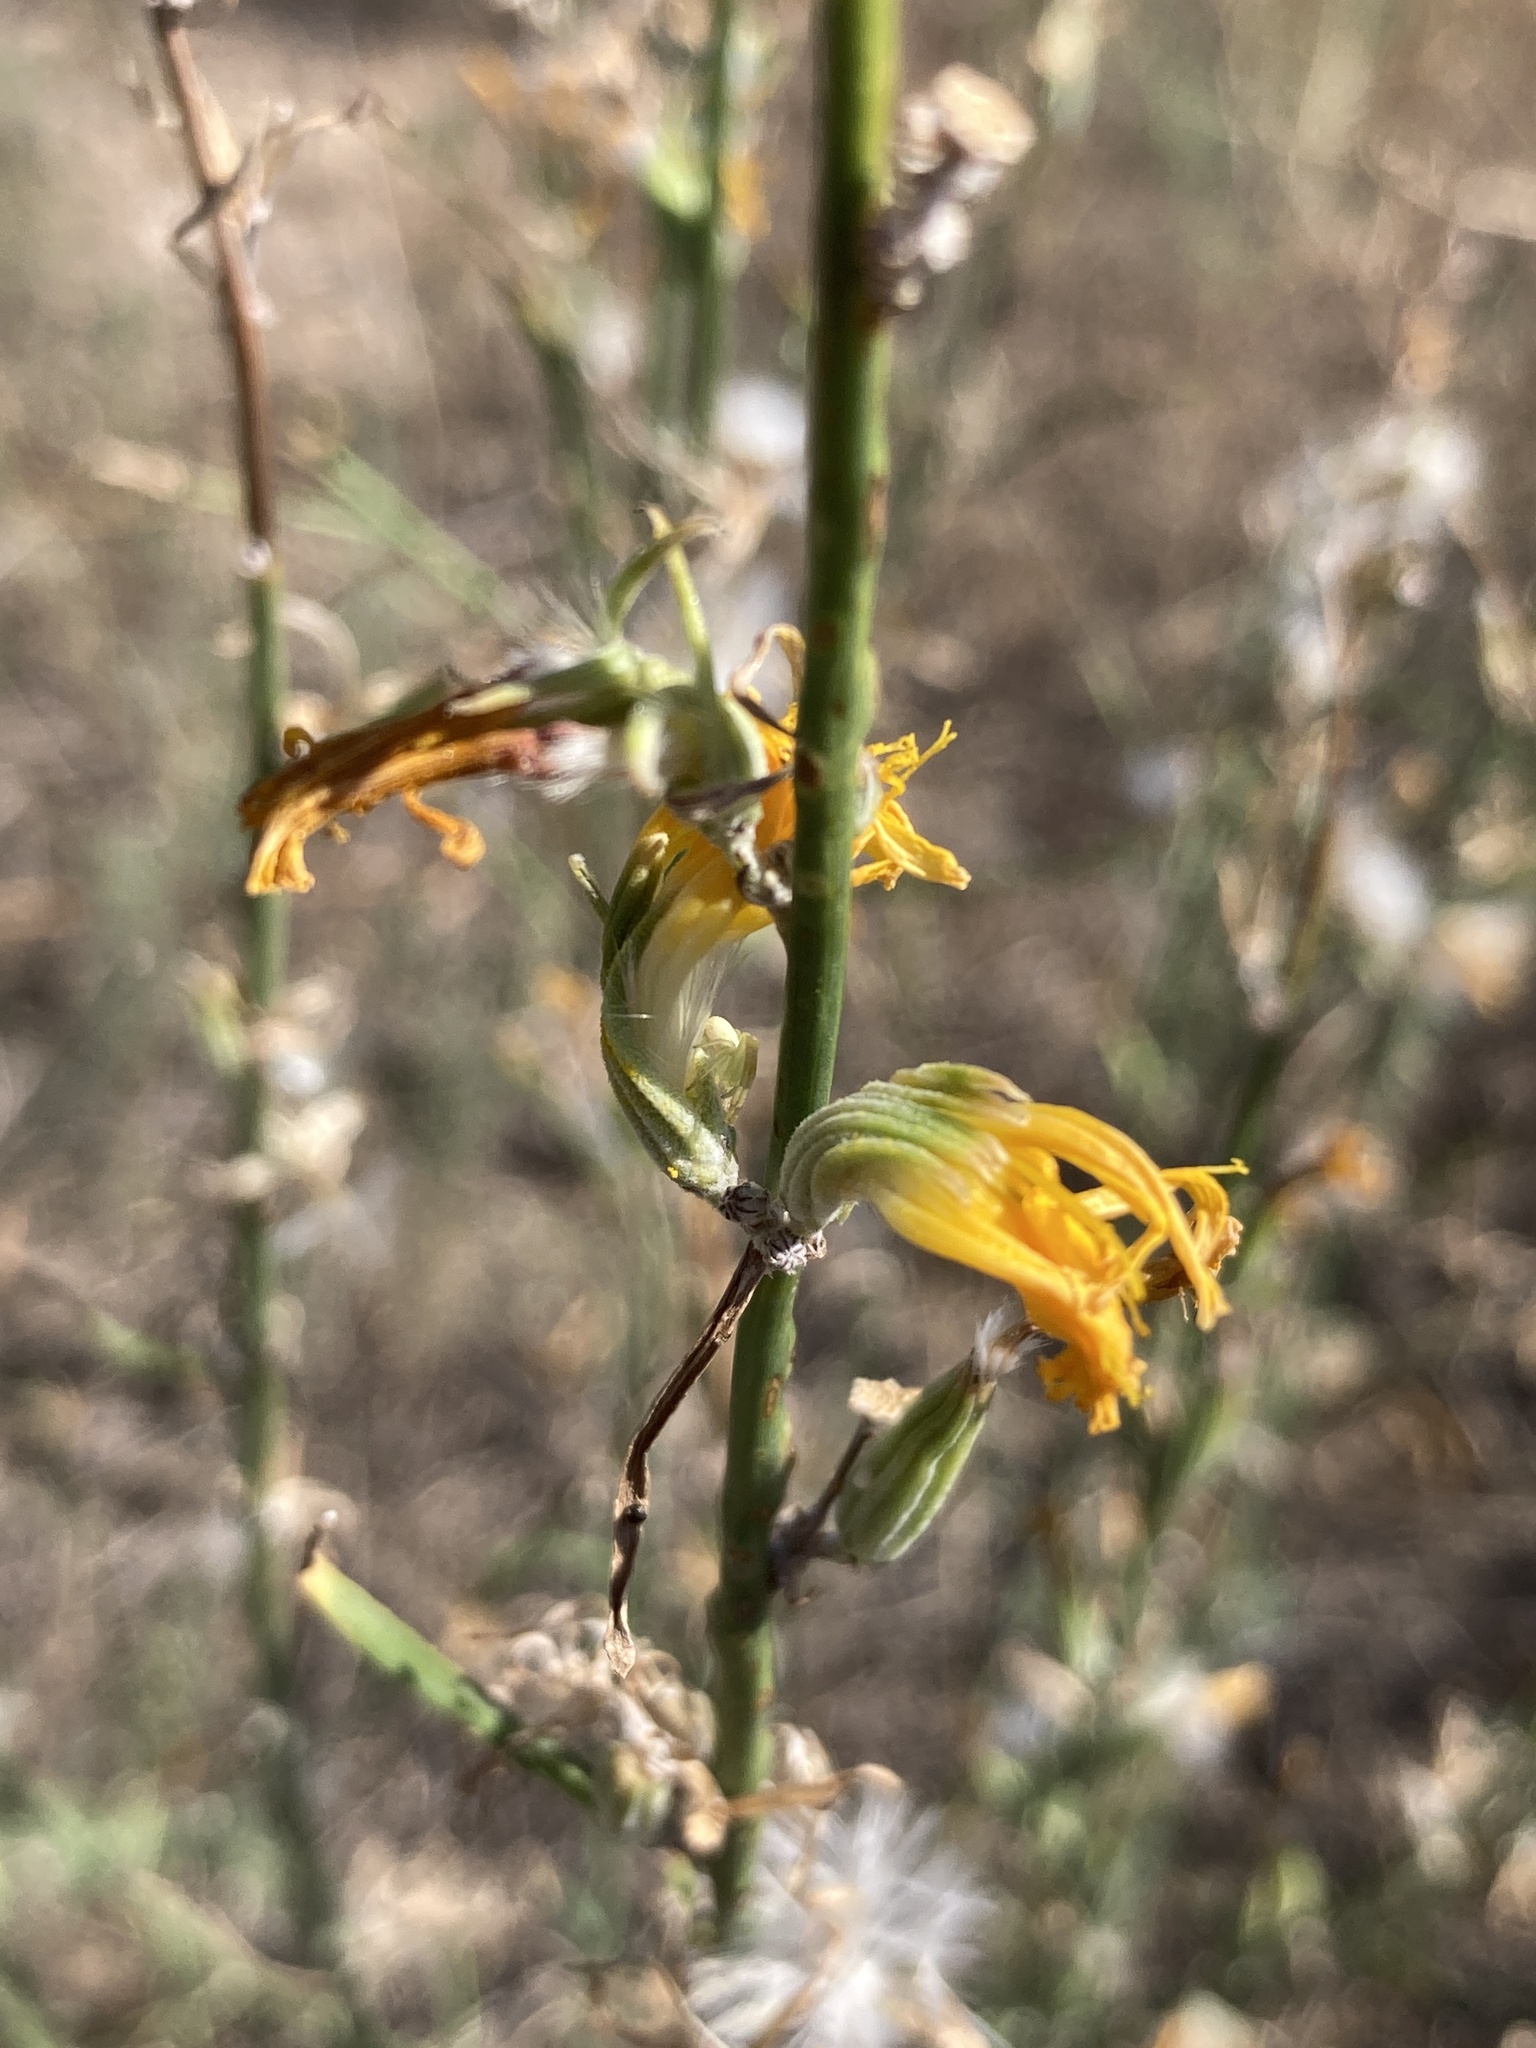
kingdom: Plantae
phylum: Tracheophyta
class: Magnoliopsida
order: Asterales
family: Asteraceae
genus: Chondrilla
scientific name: Chondrilla juncea
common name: Skeleton weed
